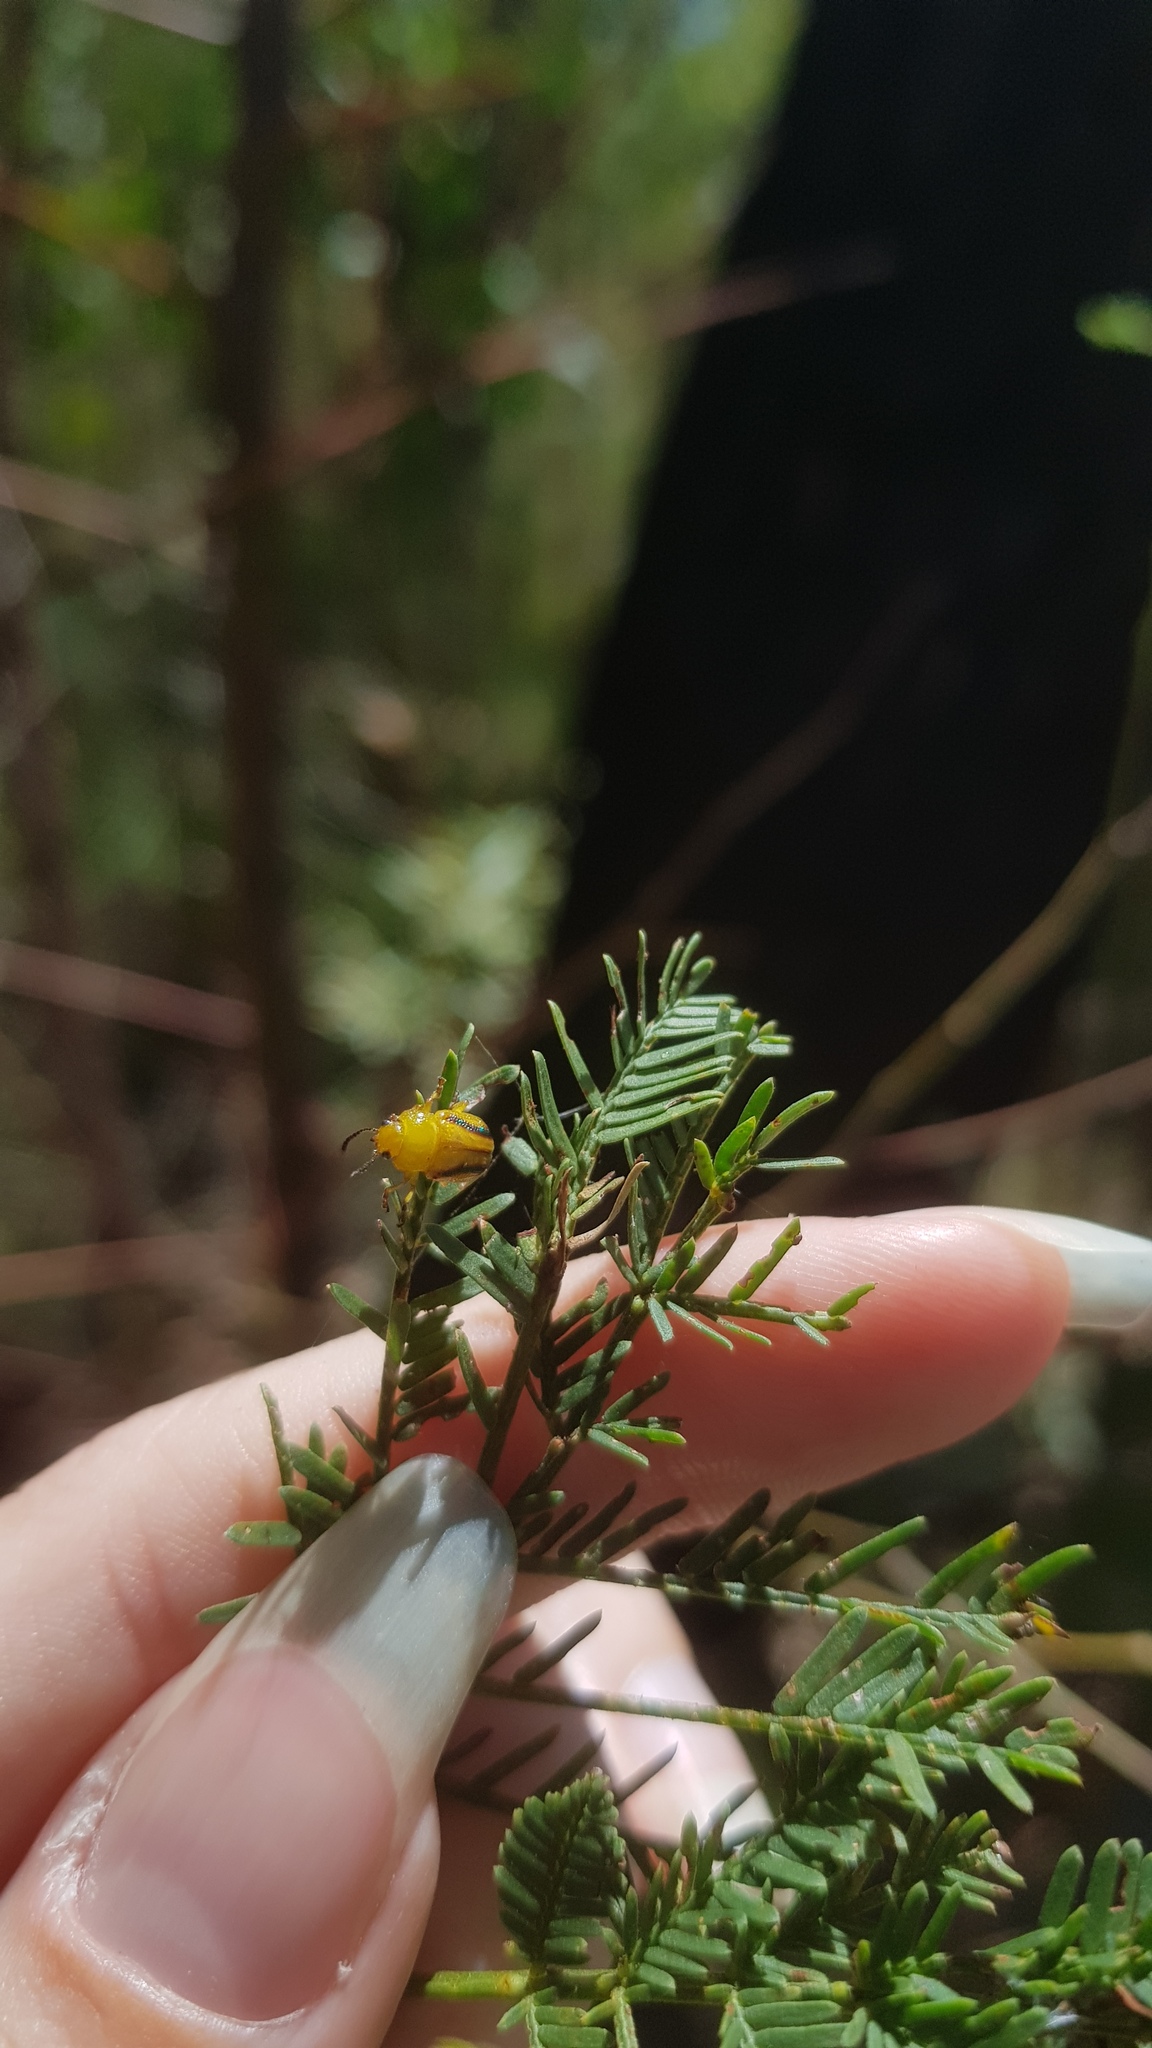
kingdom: Animalia
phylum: Arthropoda
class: Insecta
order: Coleoptera
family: Chrysomelidae
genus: Calomela
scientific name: Calomela
